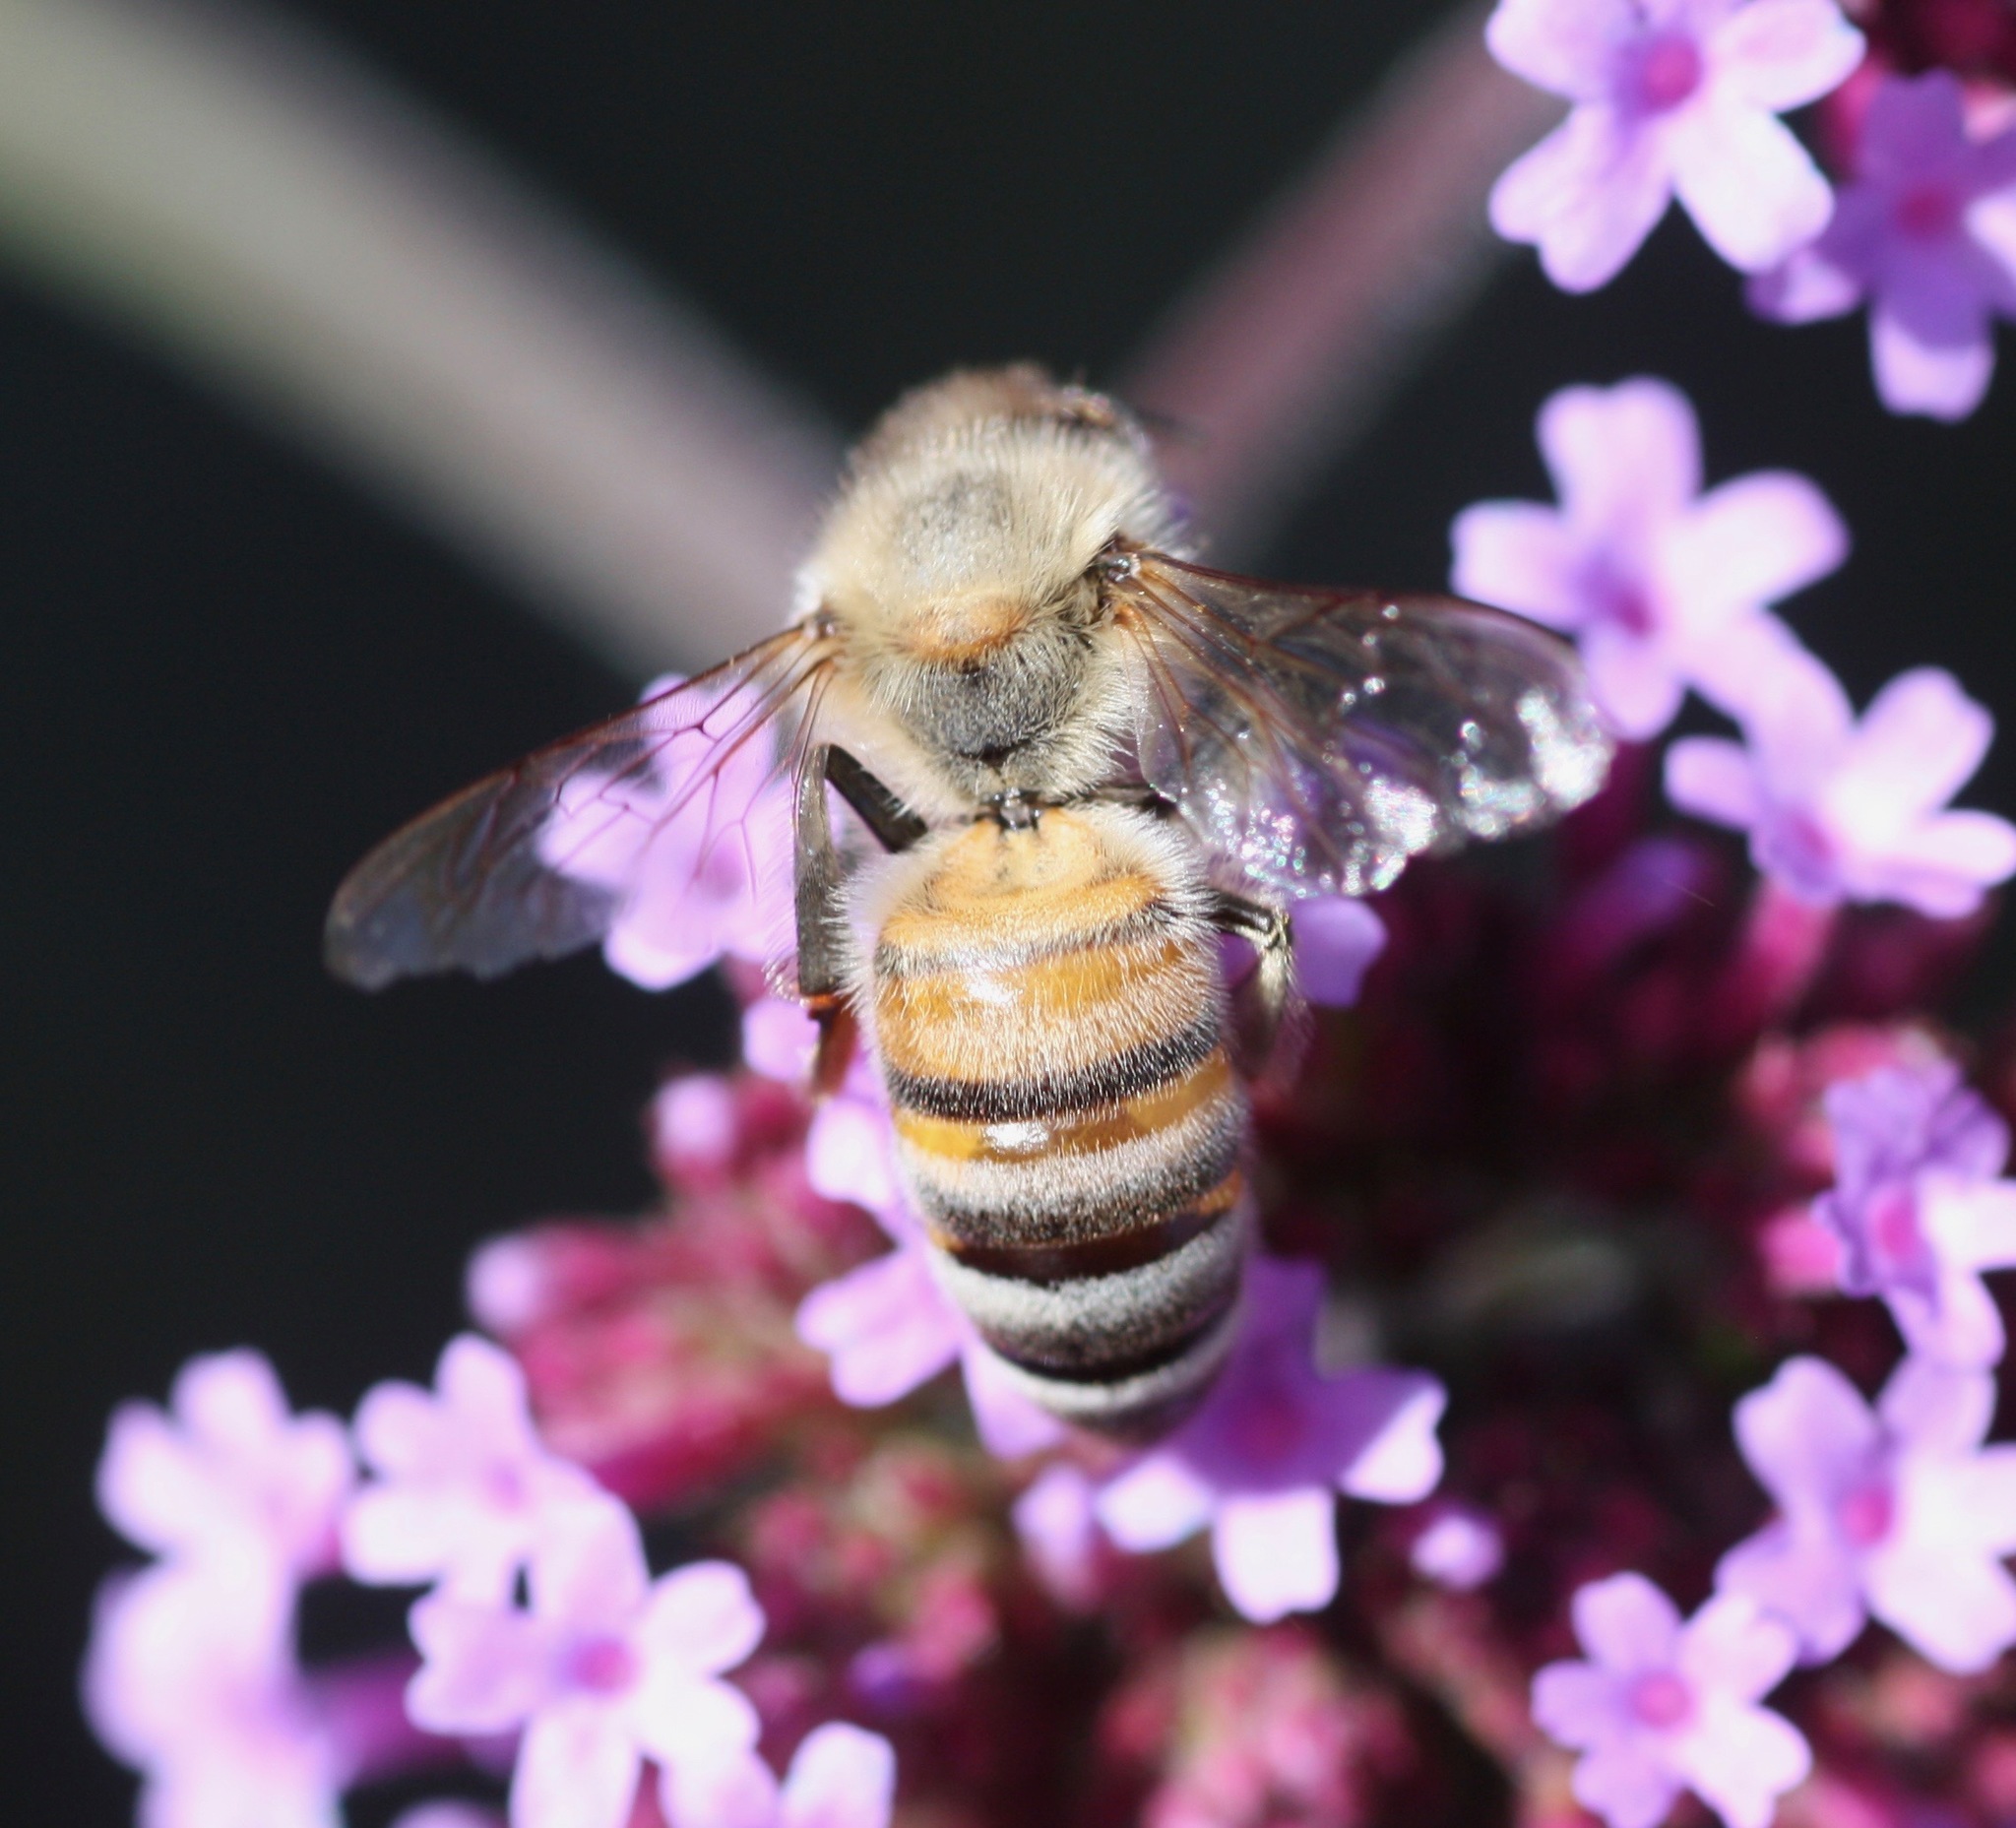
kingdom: Animalia
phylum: Arthropoda
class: Insecta
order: Hymenoptera
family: Apidae
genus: Apis
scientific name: Apis mellifera
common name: Honey bee
